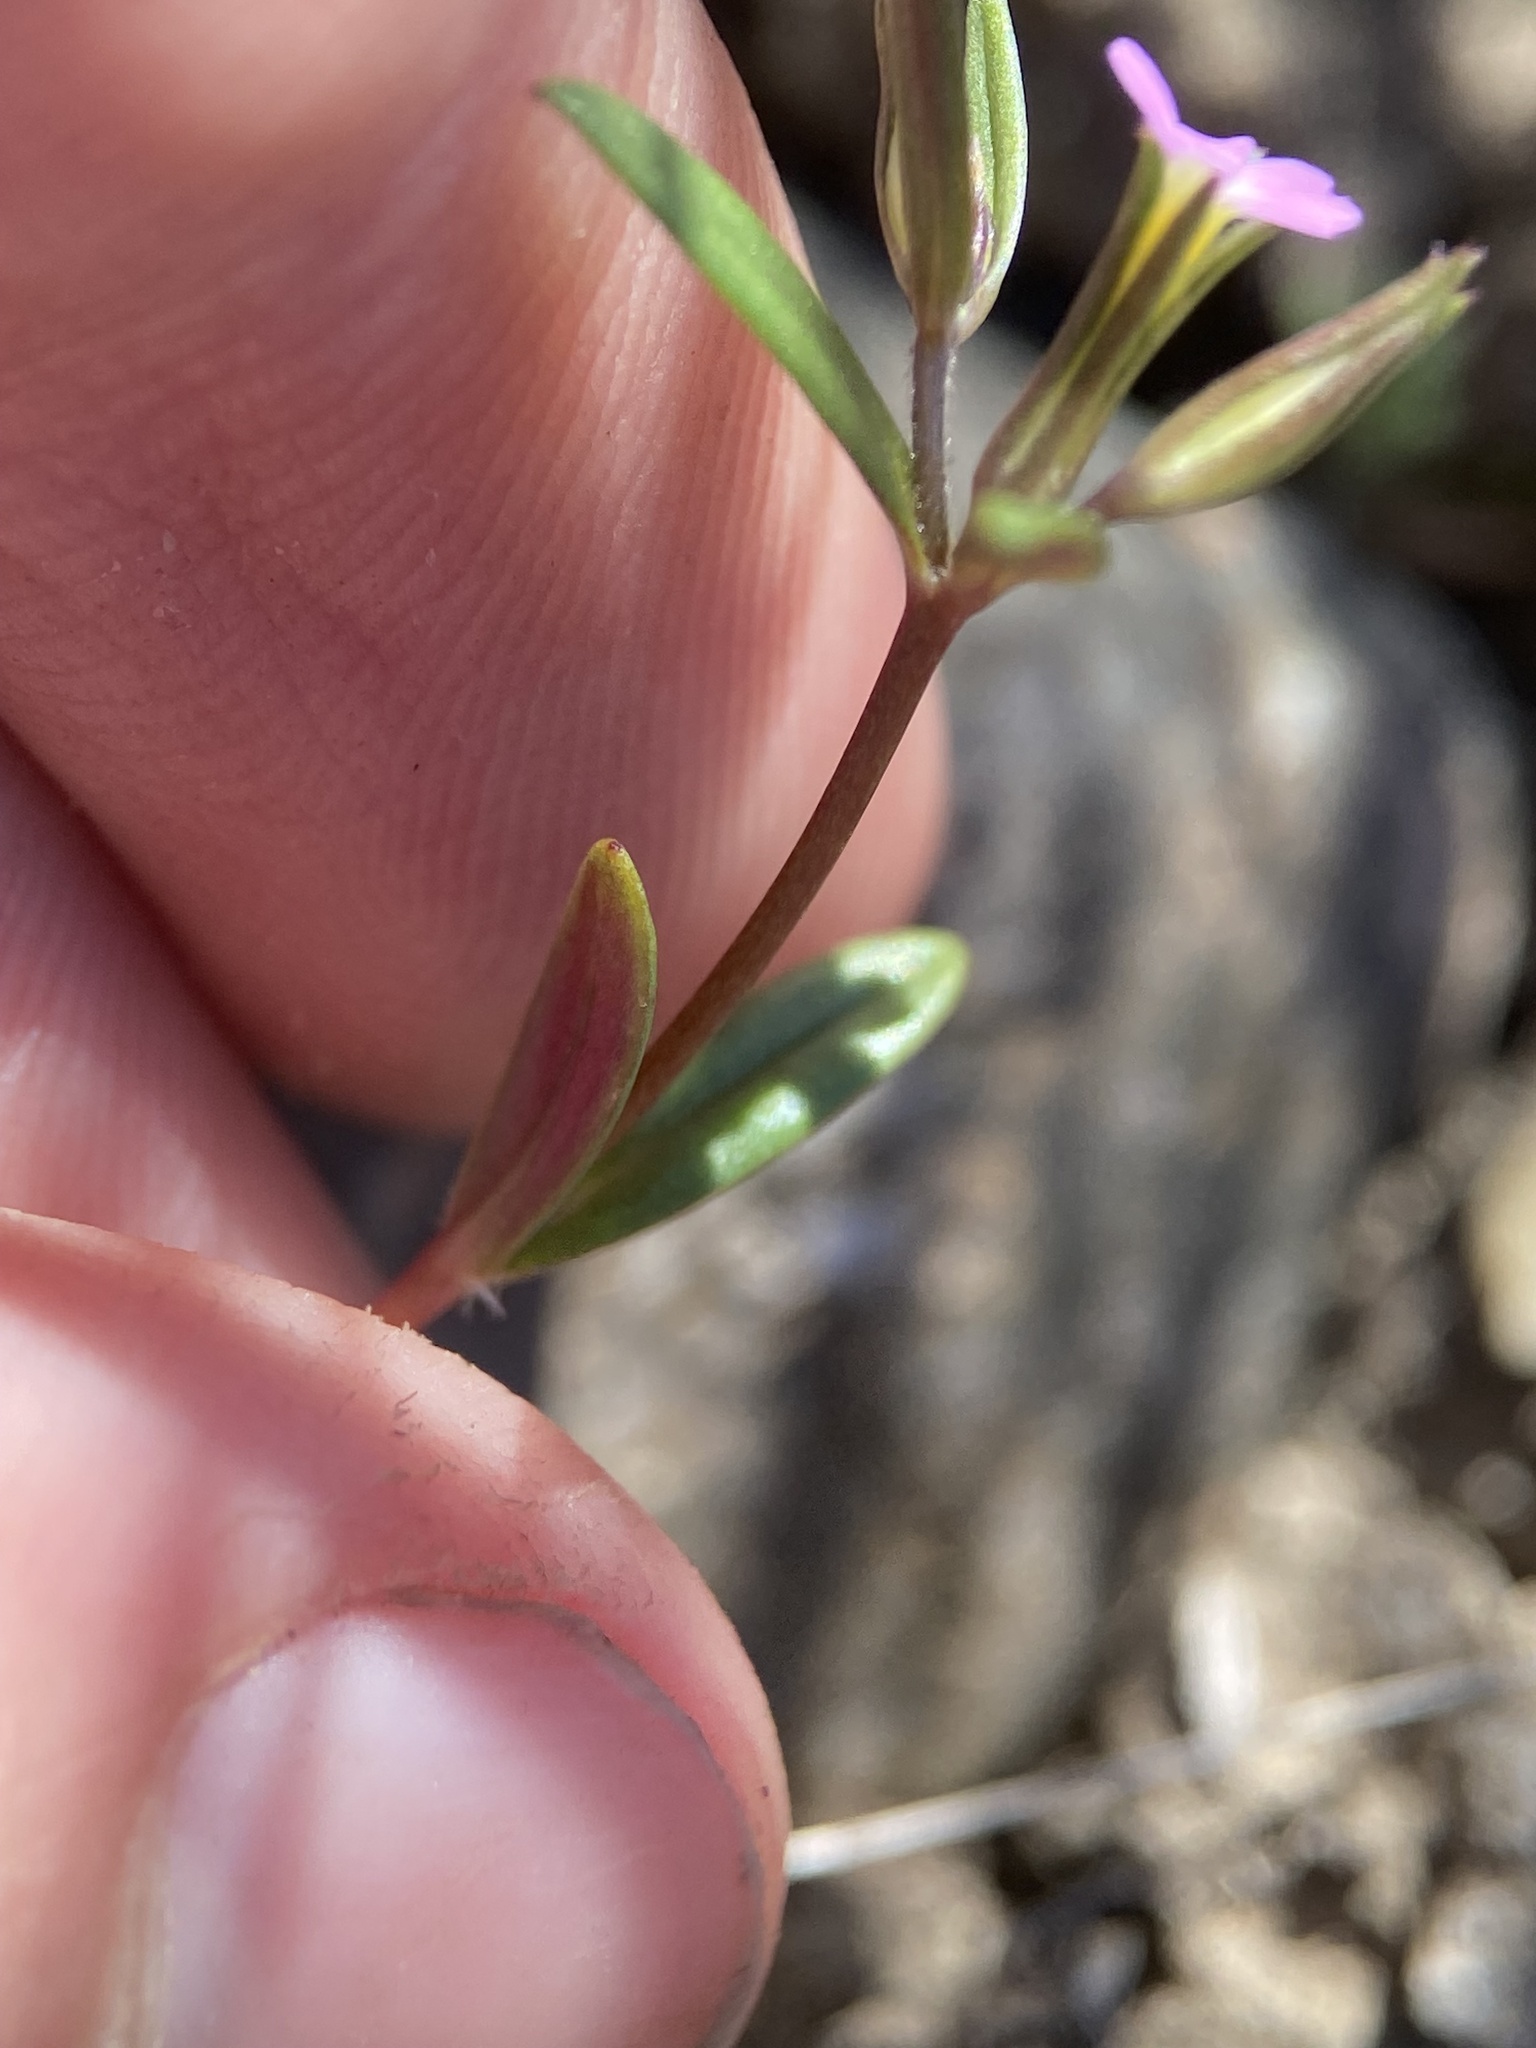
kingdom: Plantae
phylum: Tracheophyta
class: Magnoliopsida
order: Ericales
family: Polemoniaceae
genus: Phlox
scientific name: Phlox gracilis
